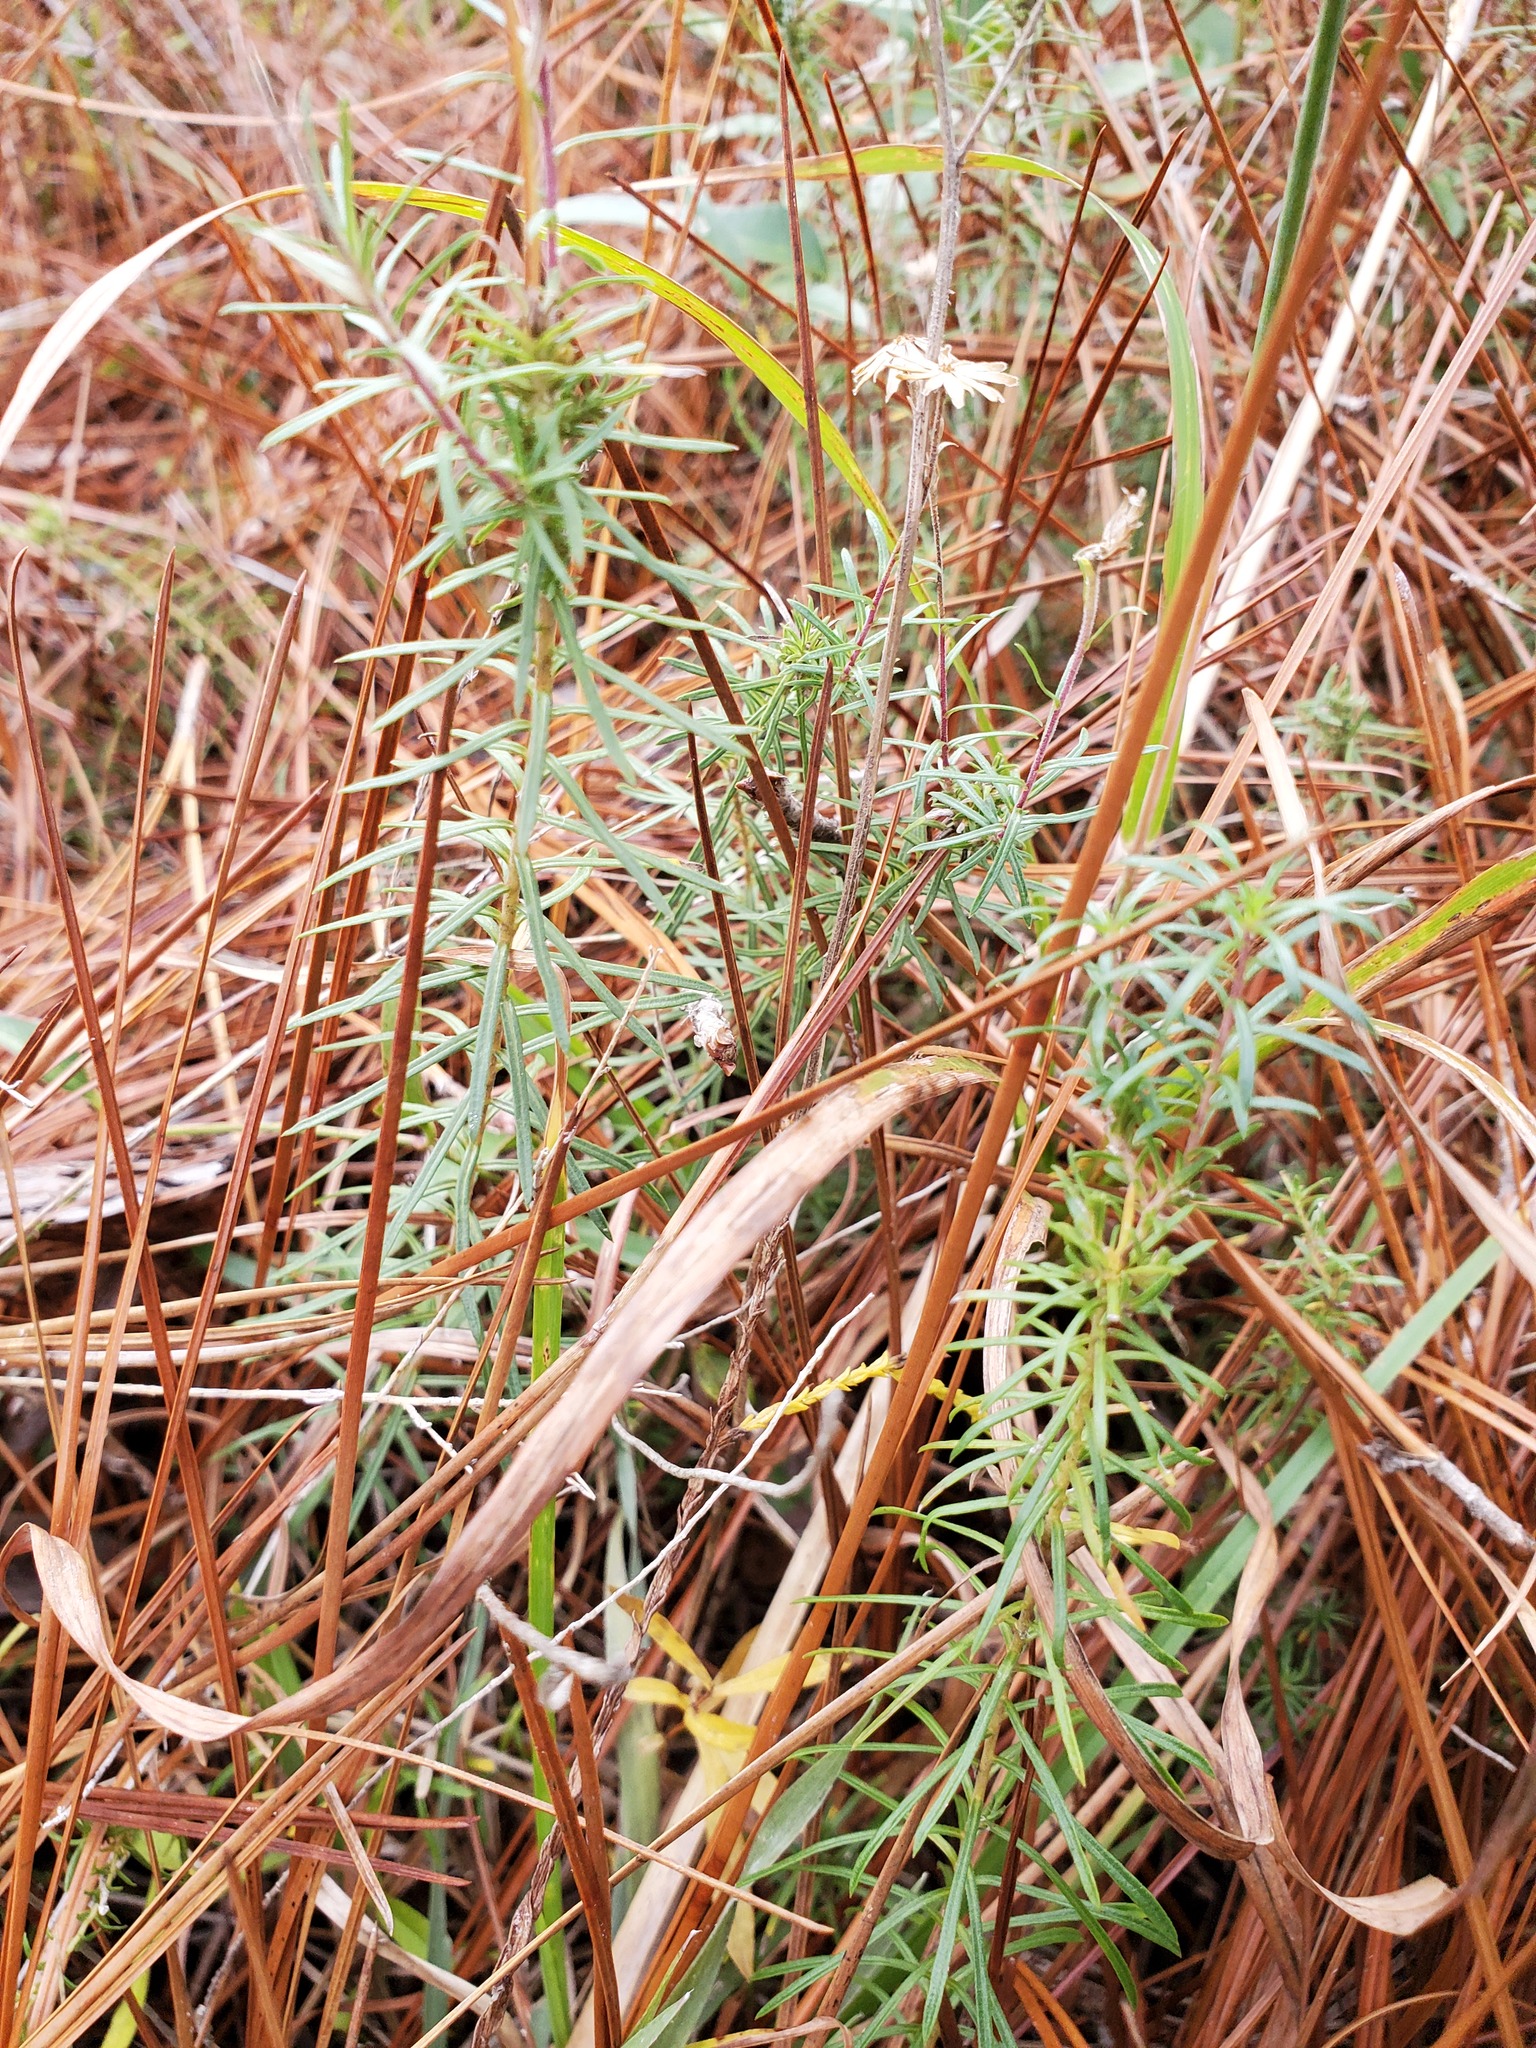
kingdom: Plantae
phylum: Tracheophyta
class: Magnoliopsida
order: Asterales
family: Asteraceae
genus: Ionactis
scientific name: Ionactis repens
